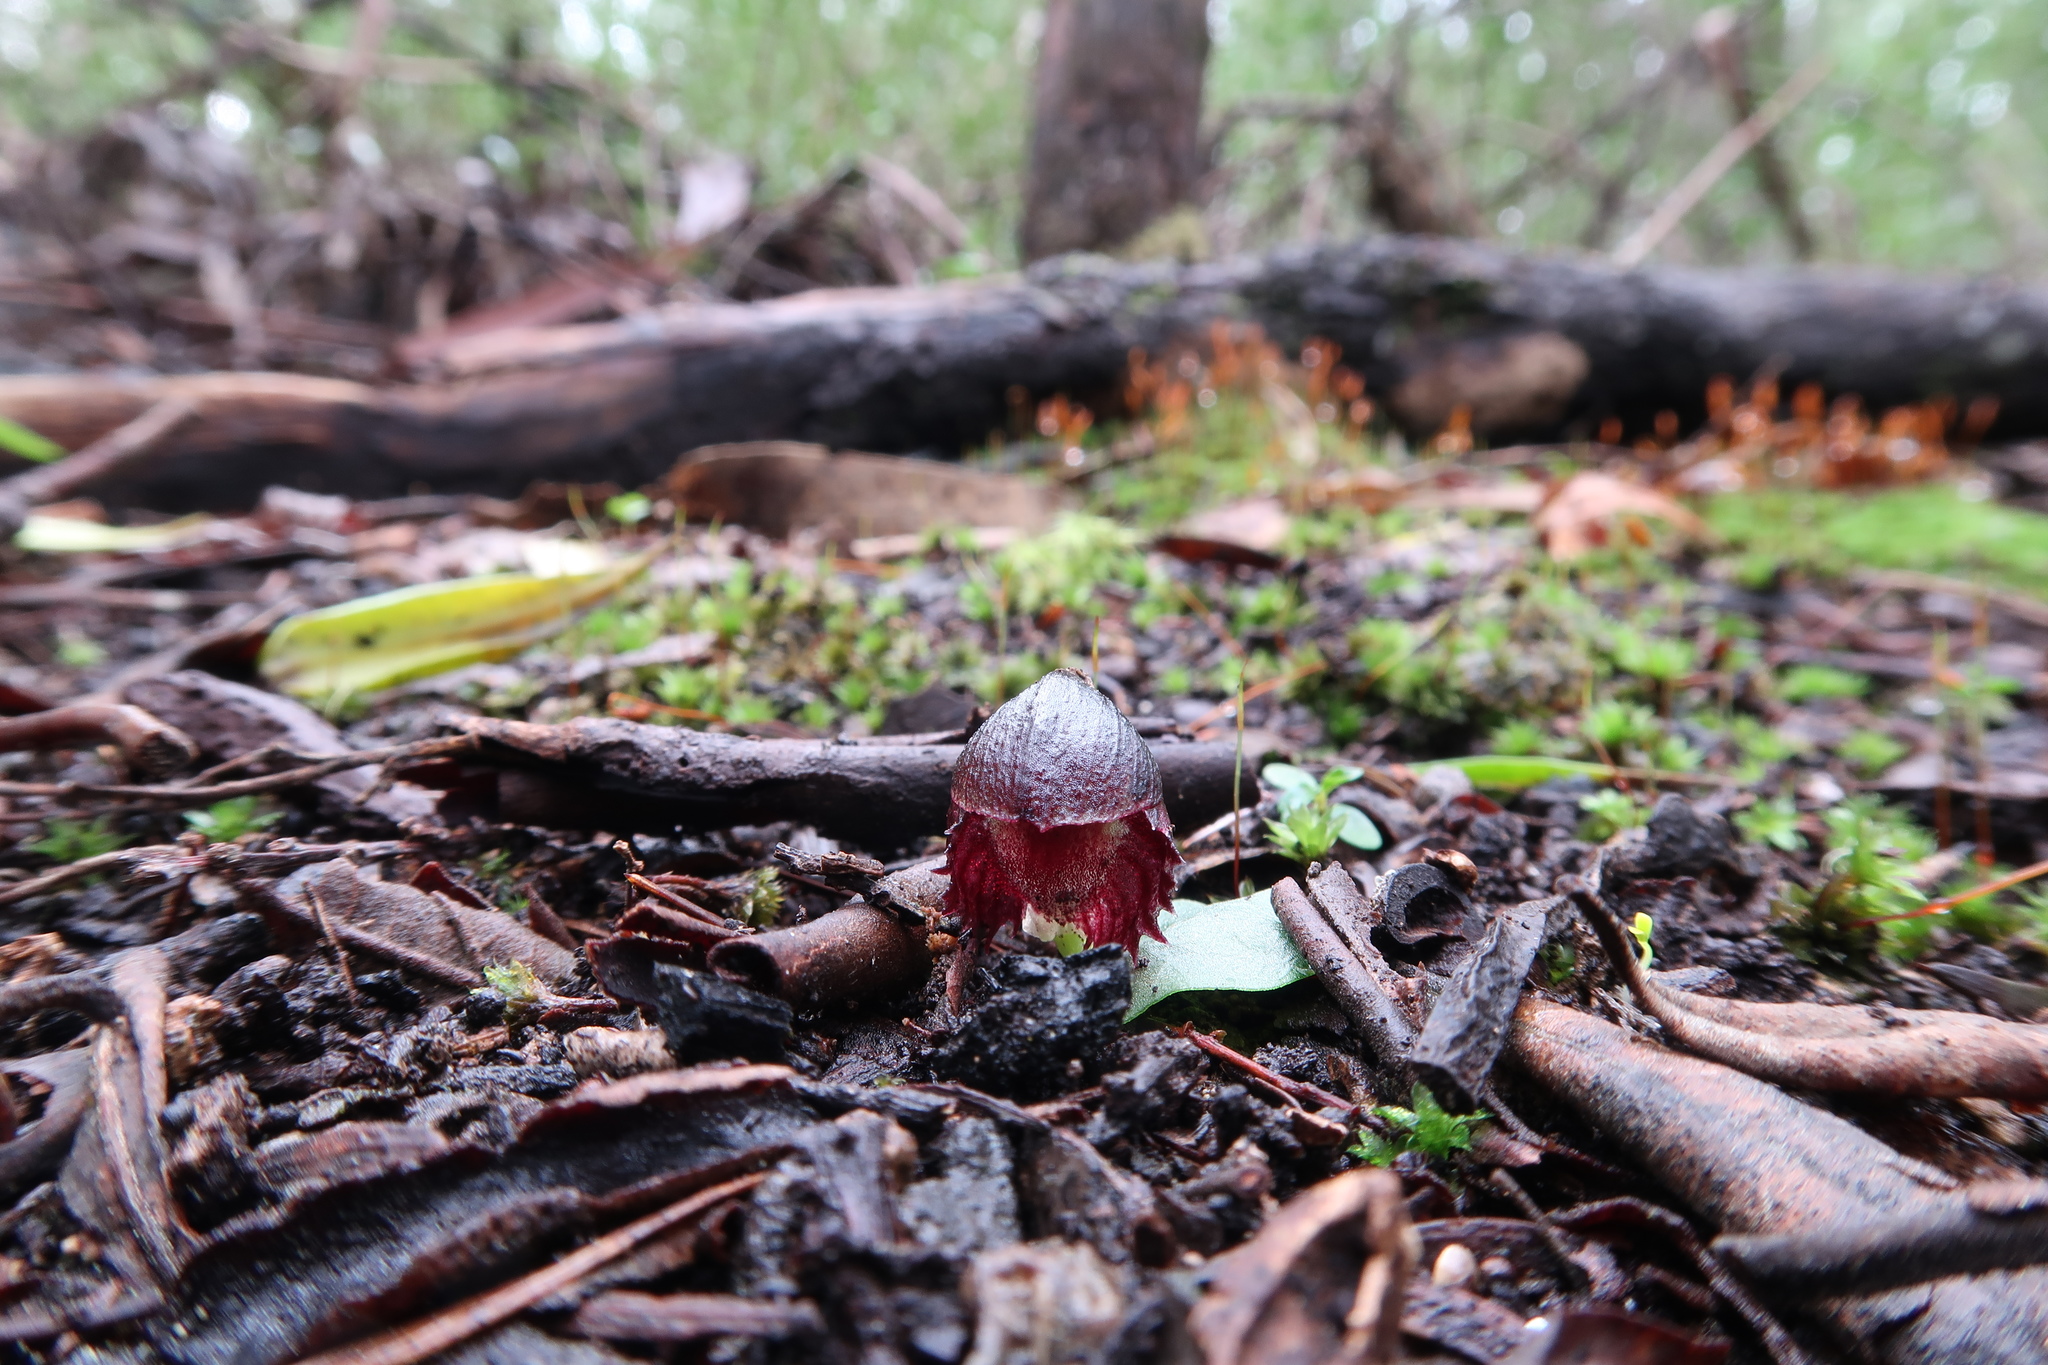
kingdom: Plantae
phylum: Tracheophyta
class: Liliopsida
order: Asparagales
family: Orchidaceae
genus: Corybas
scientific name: Corybas diemenicus
